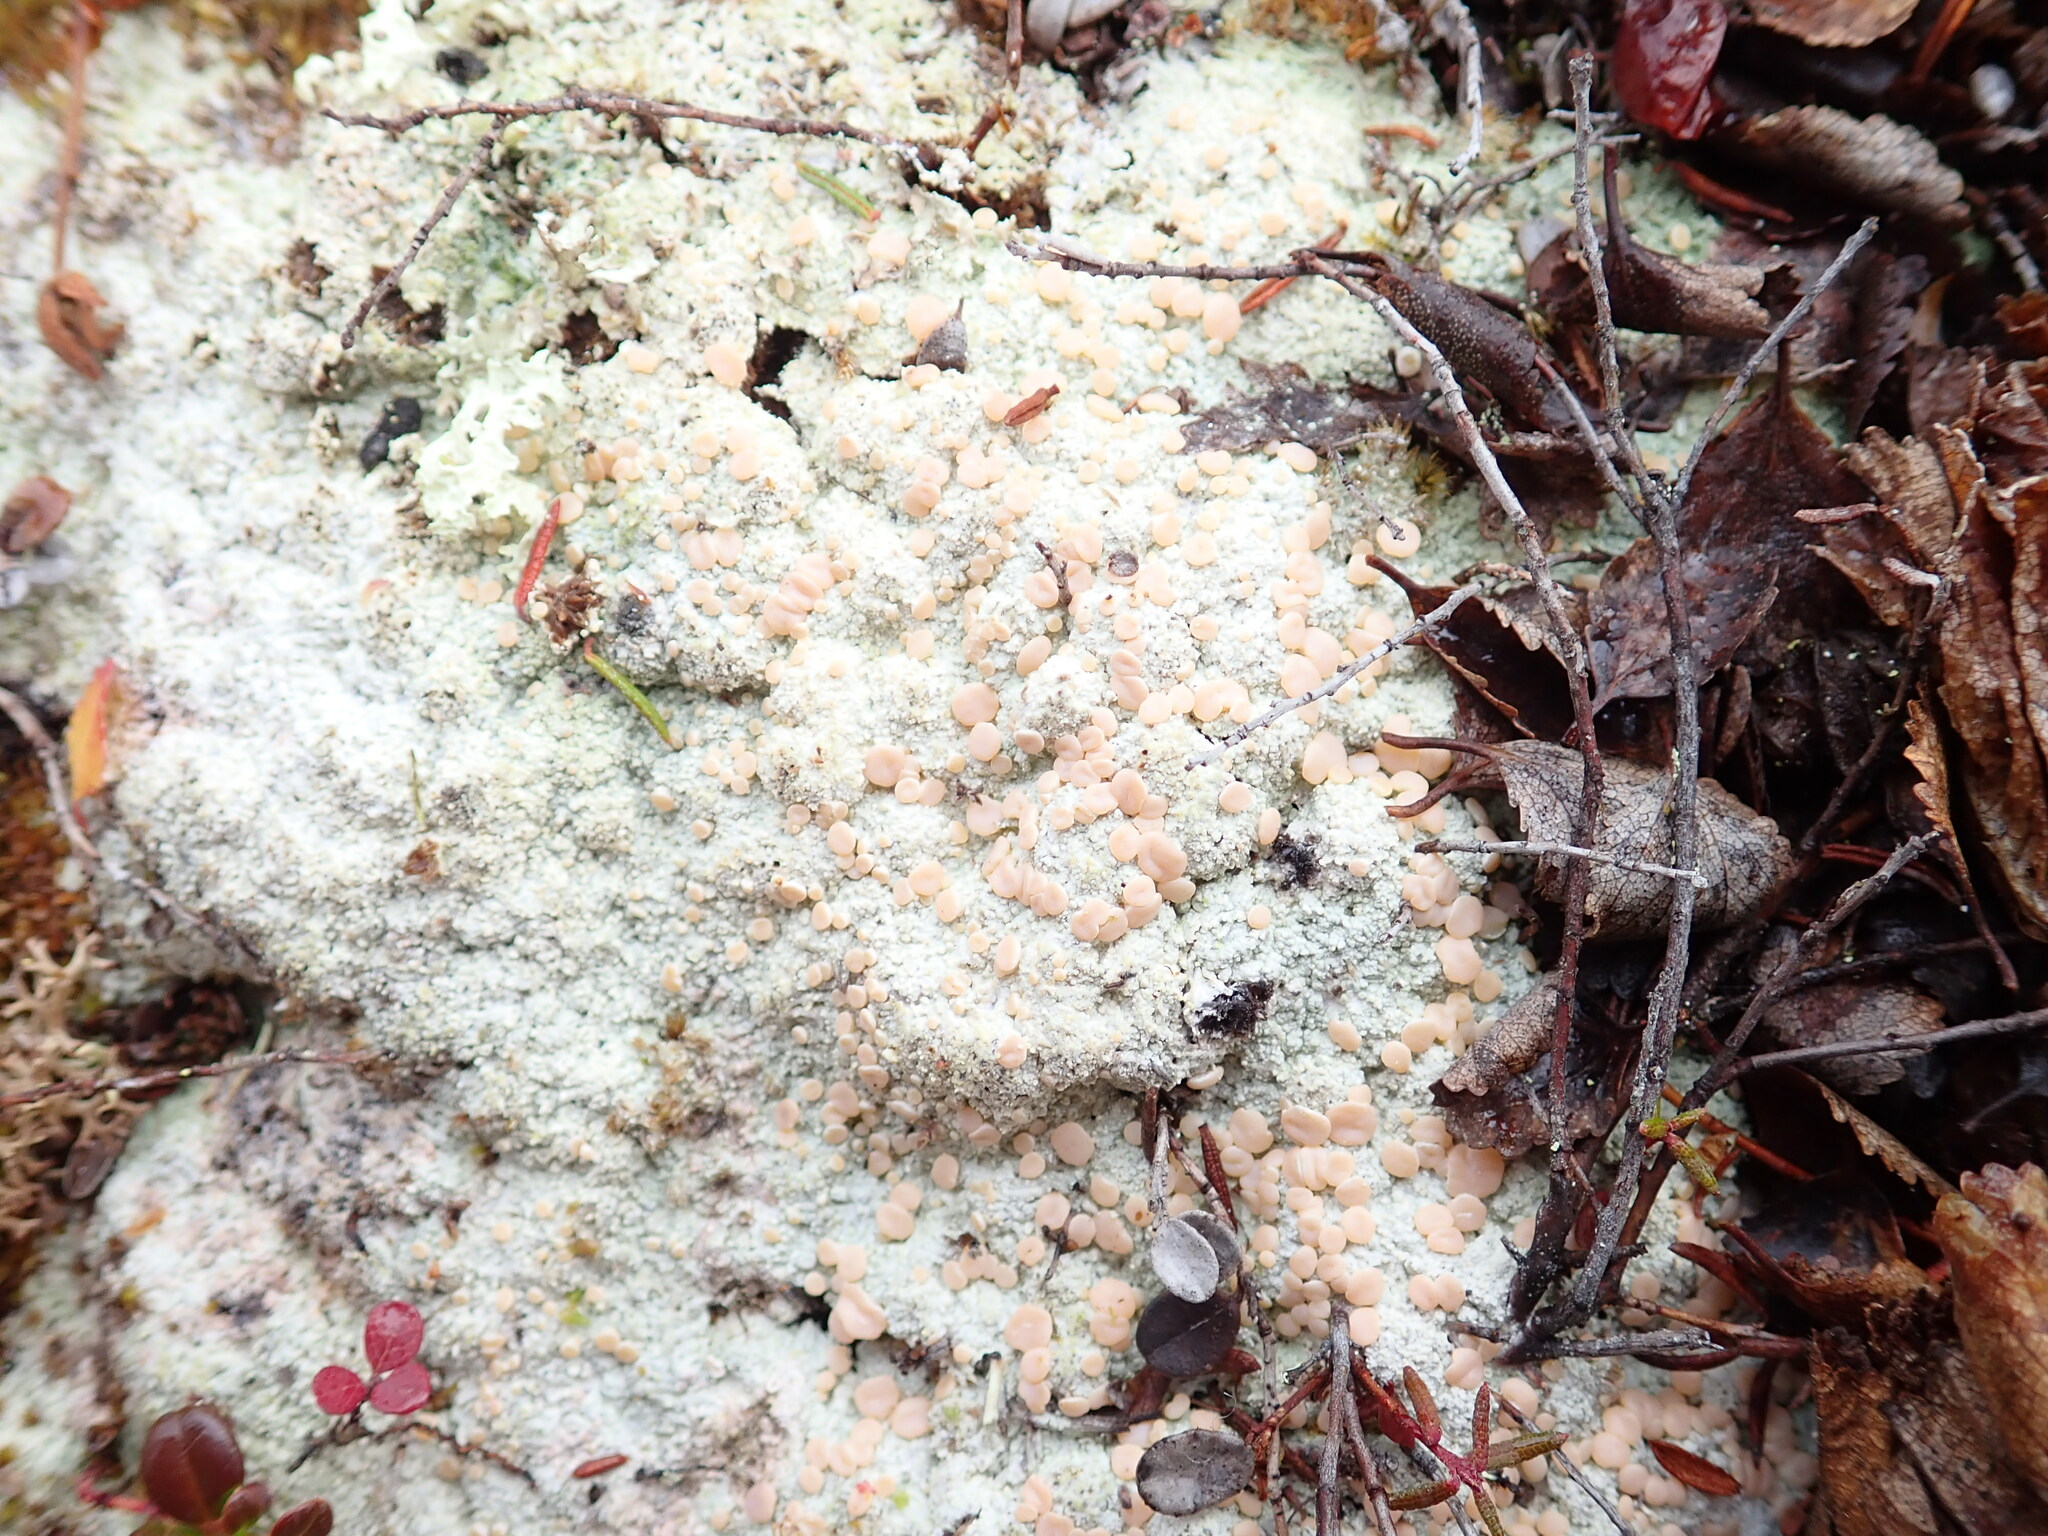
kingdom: Fungi
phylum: Ascomycota
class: Lecanoromycetes
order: Pertusariales
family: Icmadophilaceae
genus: Icmadophila
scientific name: Icmadophila ericetorum
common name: Candy lichen
